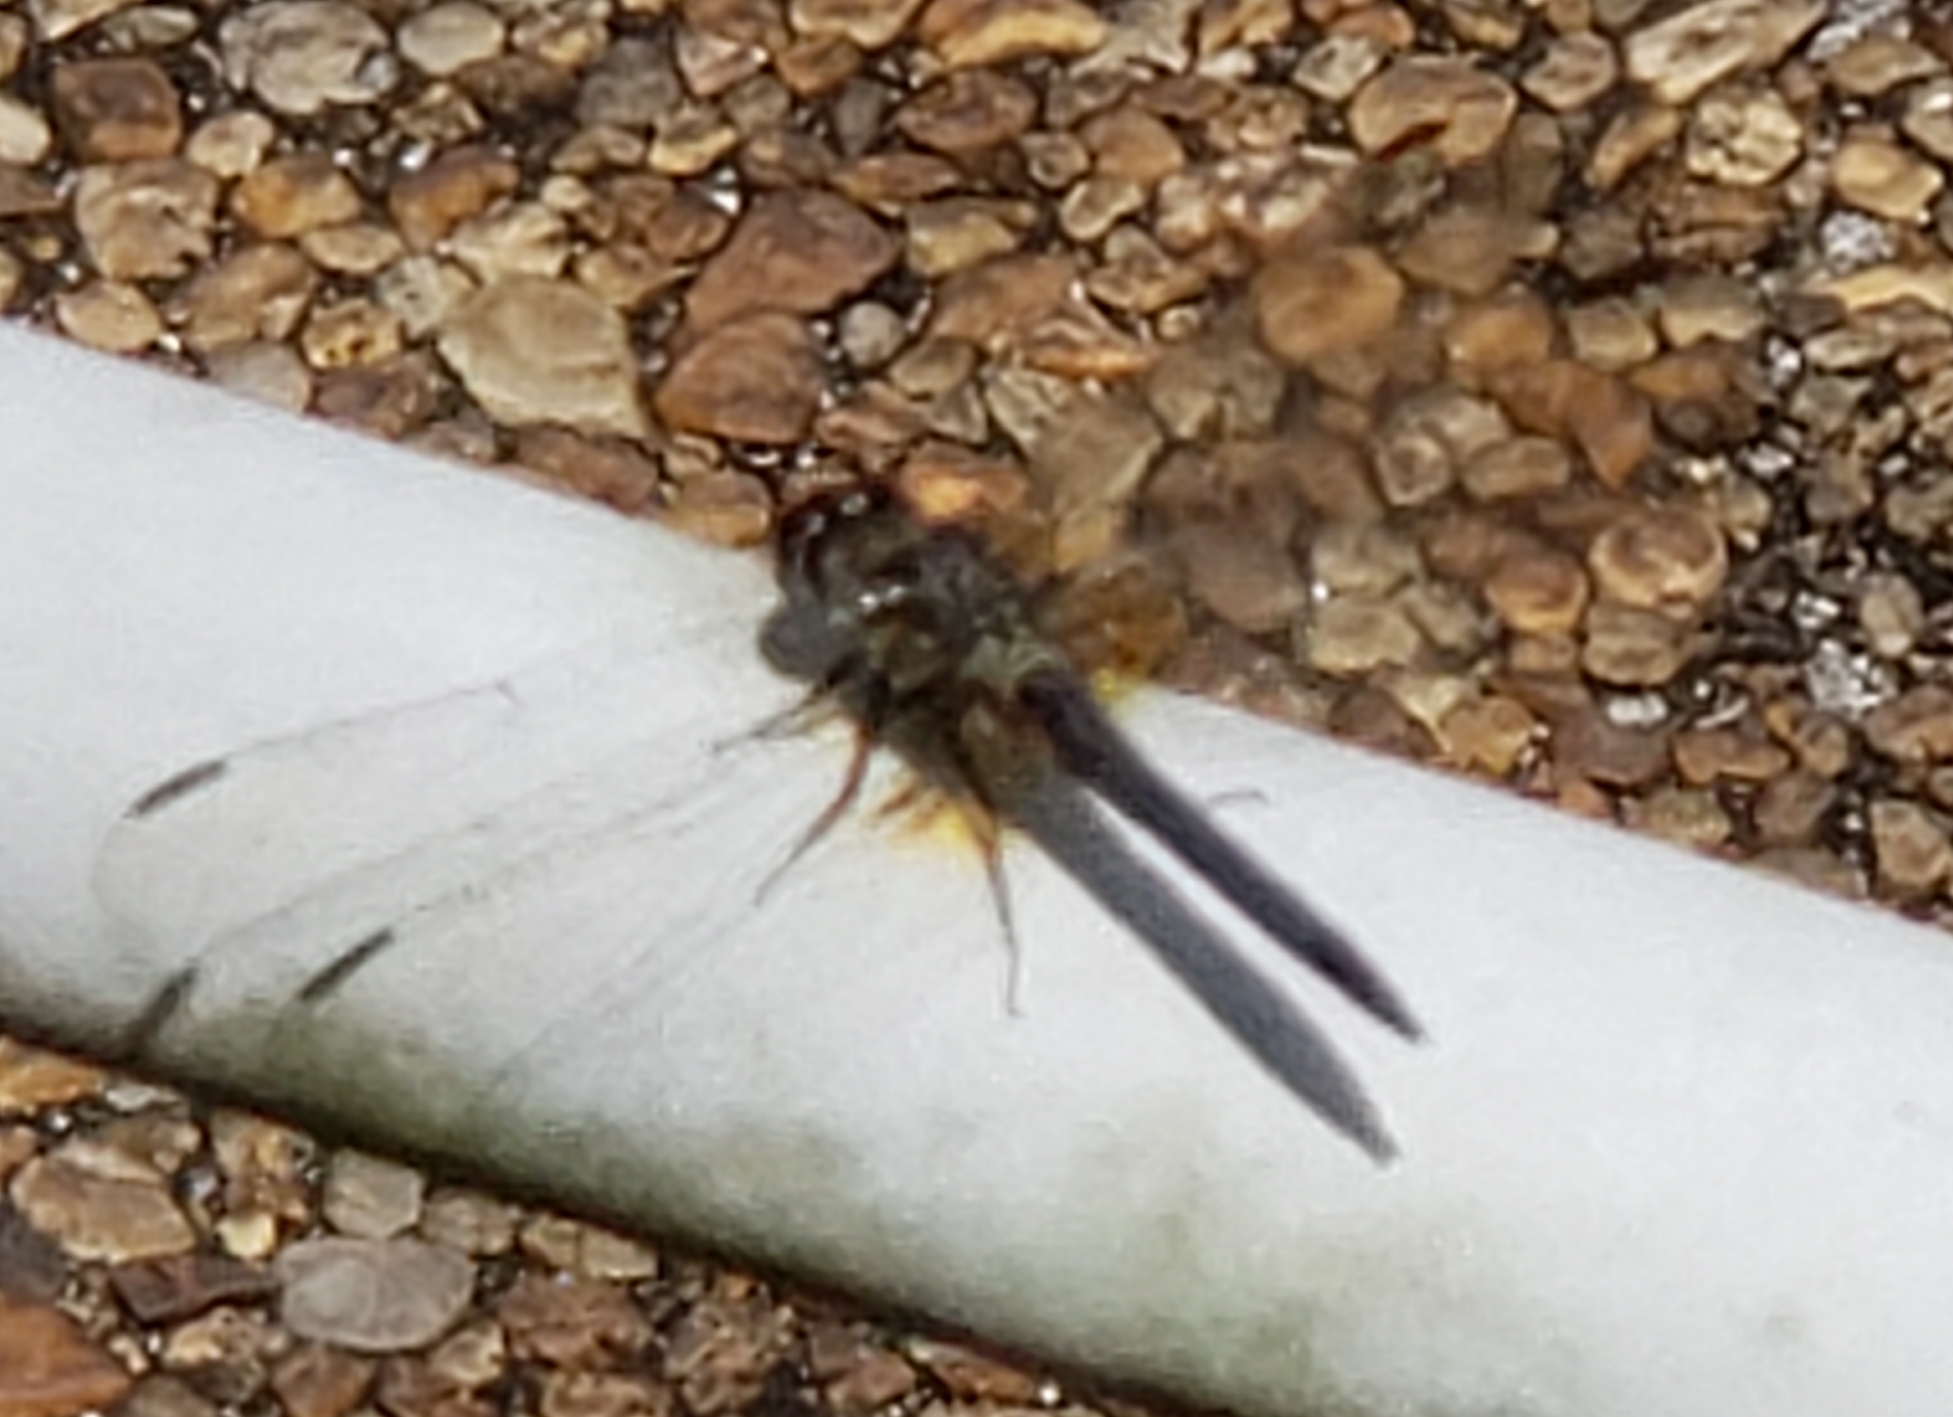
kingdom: Animalia
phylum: Arthropoda
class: Insecta
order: Odonata
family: Libellulidae
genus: Pachydiplax
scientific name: Pachydiplax longipennis
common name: Blue dasher
